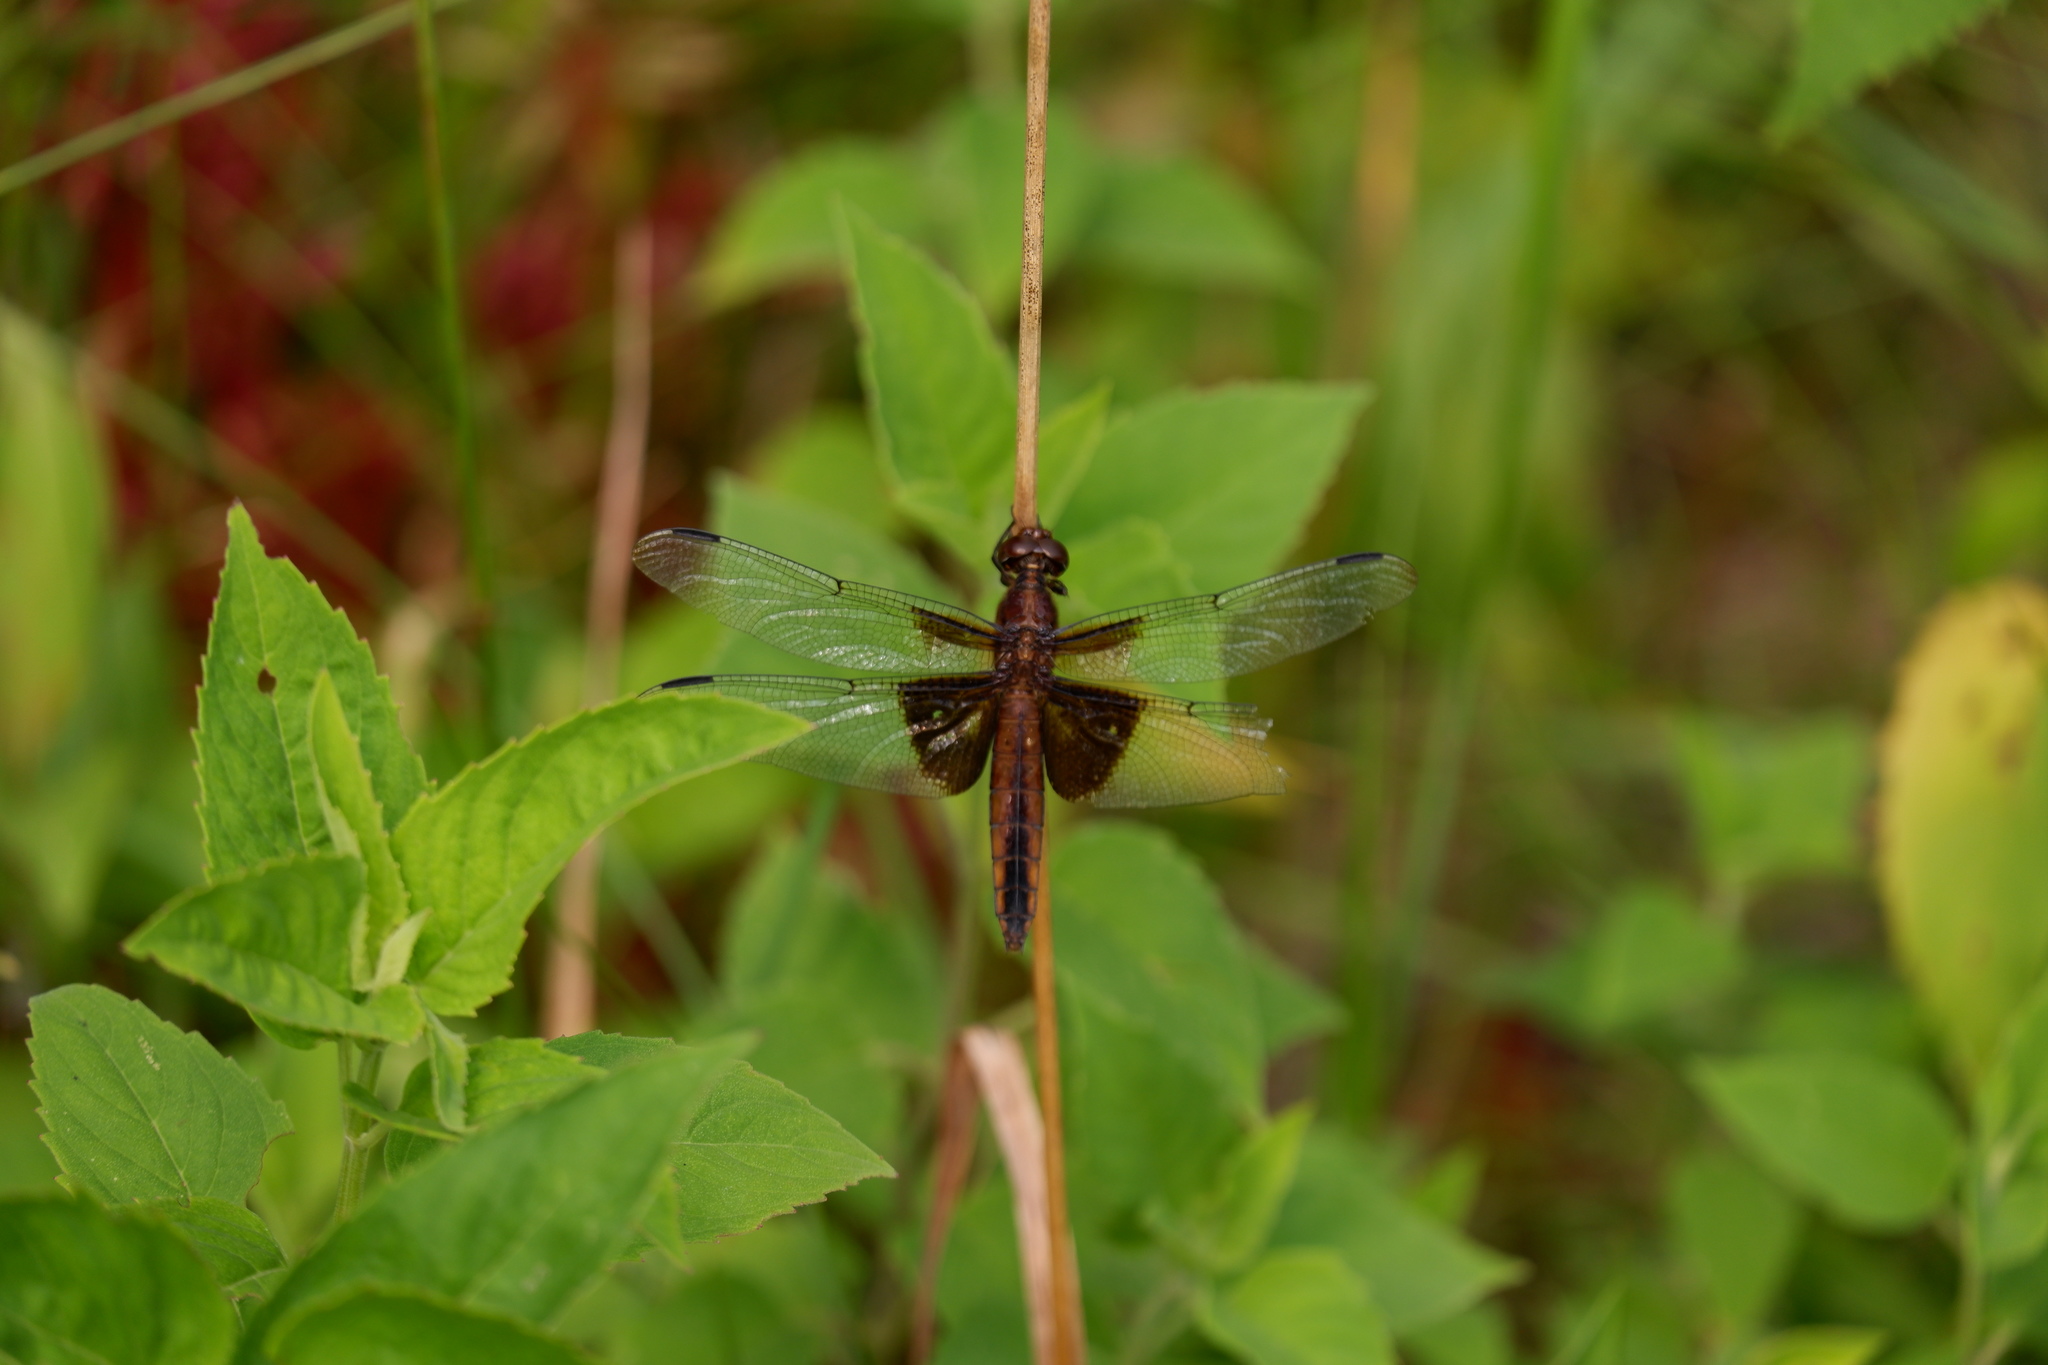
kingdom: Animalia
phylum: Arthropoda
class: Insecta
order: Odonata
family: Libellulidae
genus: Libellula
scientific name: Libellula luctuosa
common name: Widow skimmer
